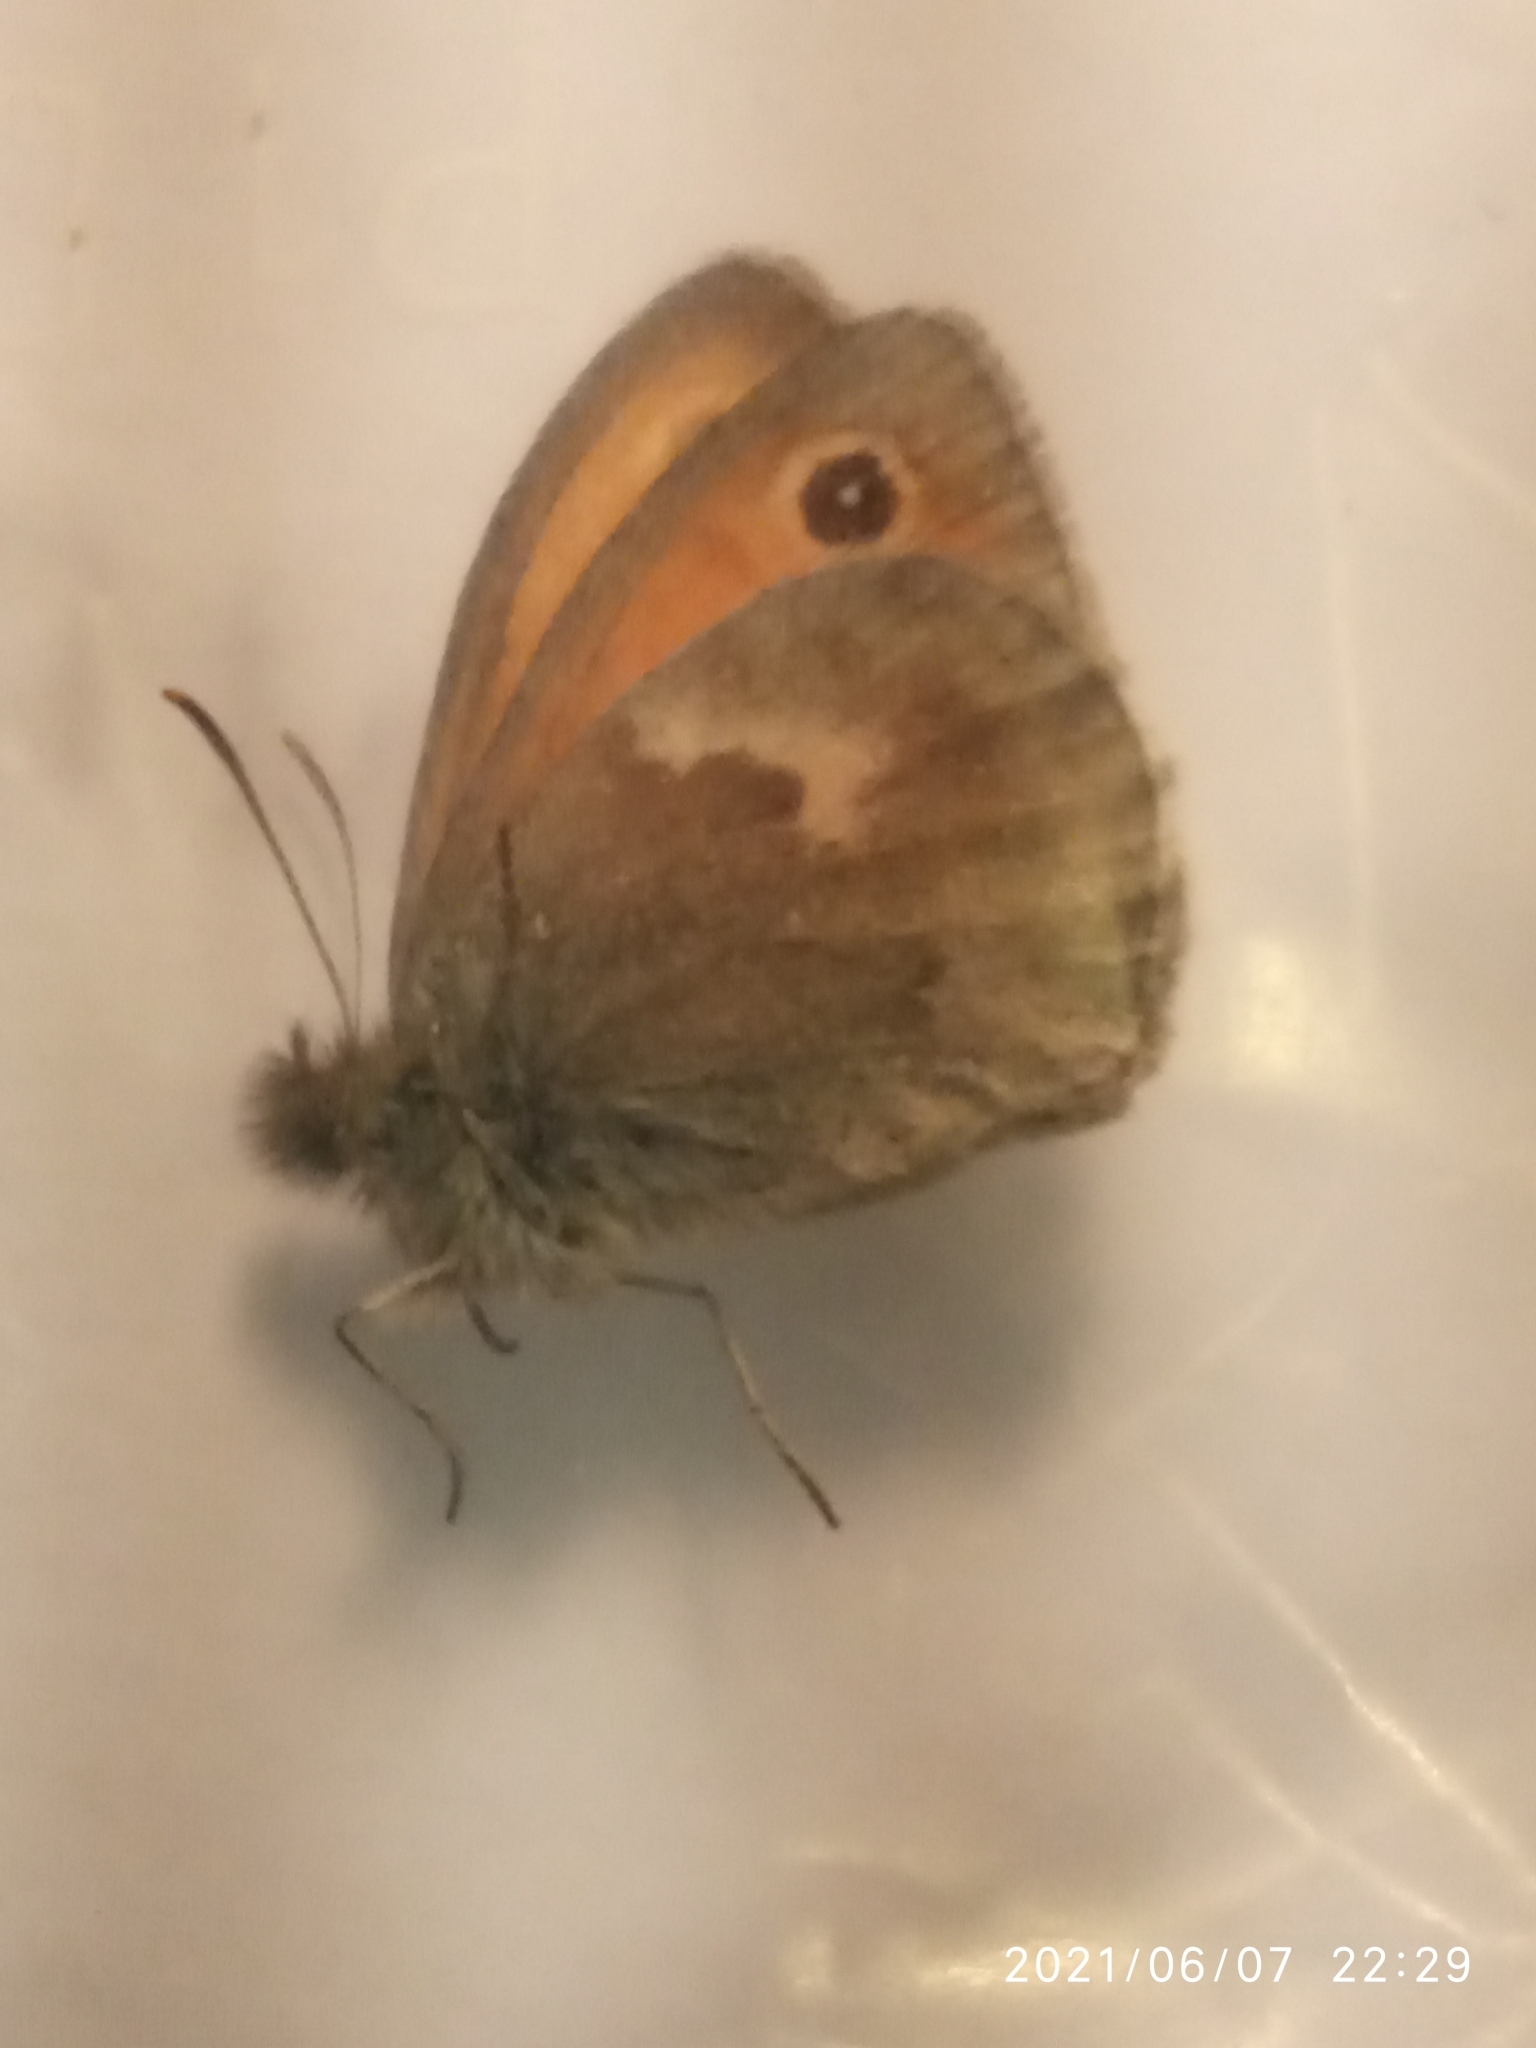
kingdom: Animalia
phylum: Arthropoda
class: Insecta
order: Lepidoptera
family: Nymphalidae
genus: Coenonympha
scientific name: Coenonympha pamphilus
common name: Small heath
